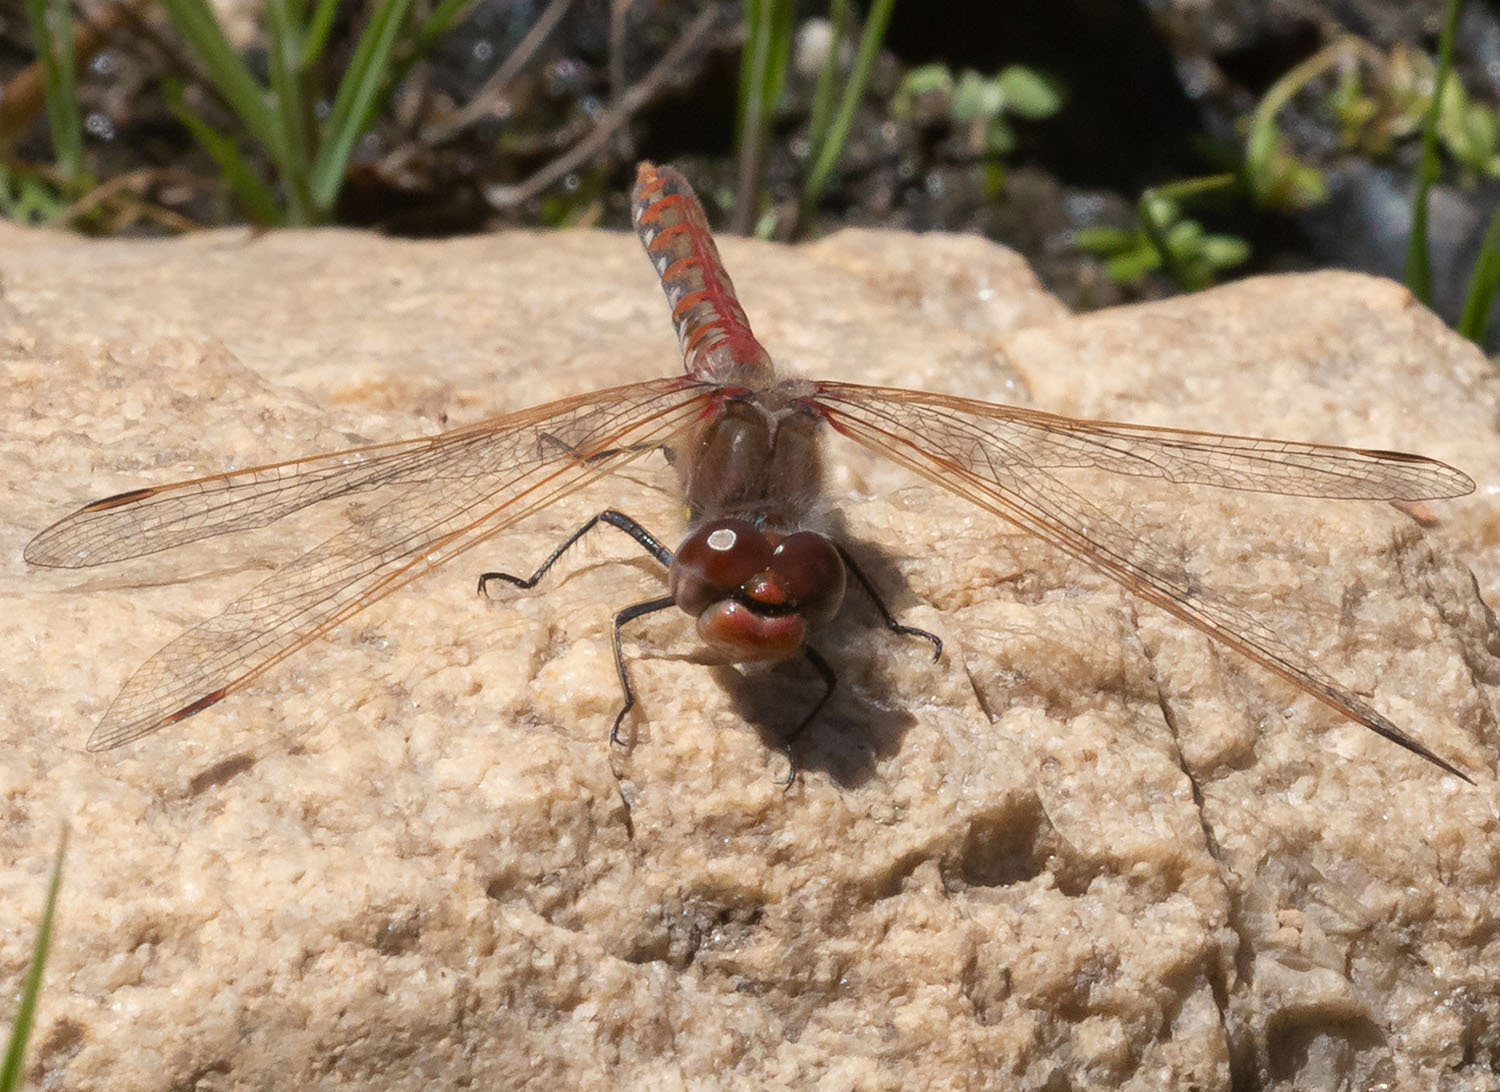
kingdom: Animalia
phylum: Arthropoda
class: Insecta
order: Odonata
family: Libellulidae
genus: Sympetrum
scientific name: Sympetrum corruptum
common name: Variegated meadowhawk
